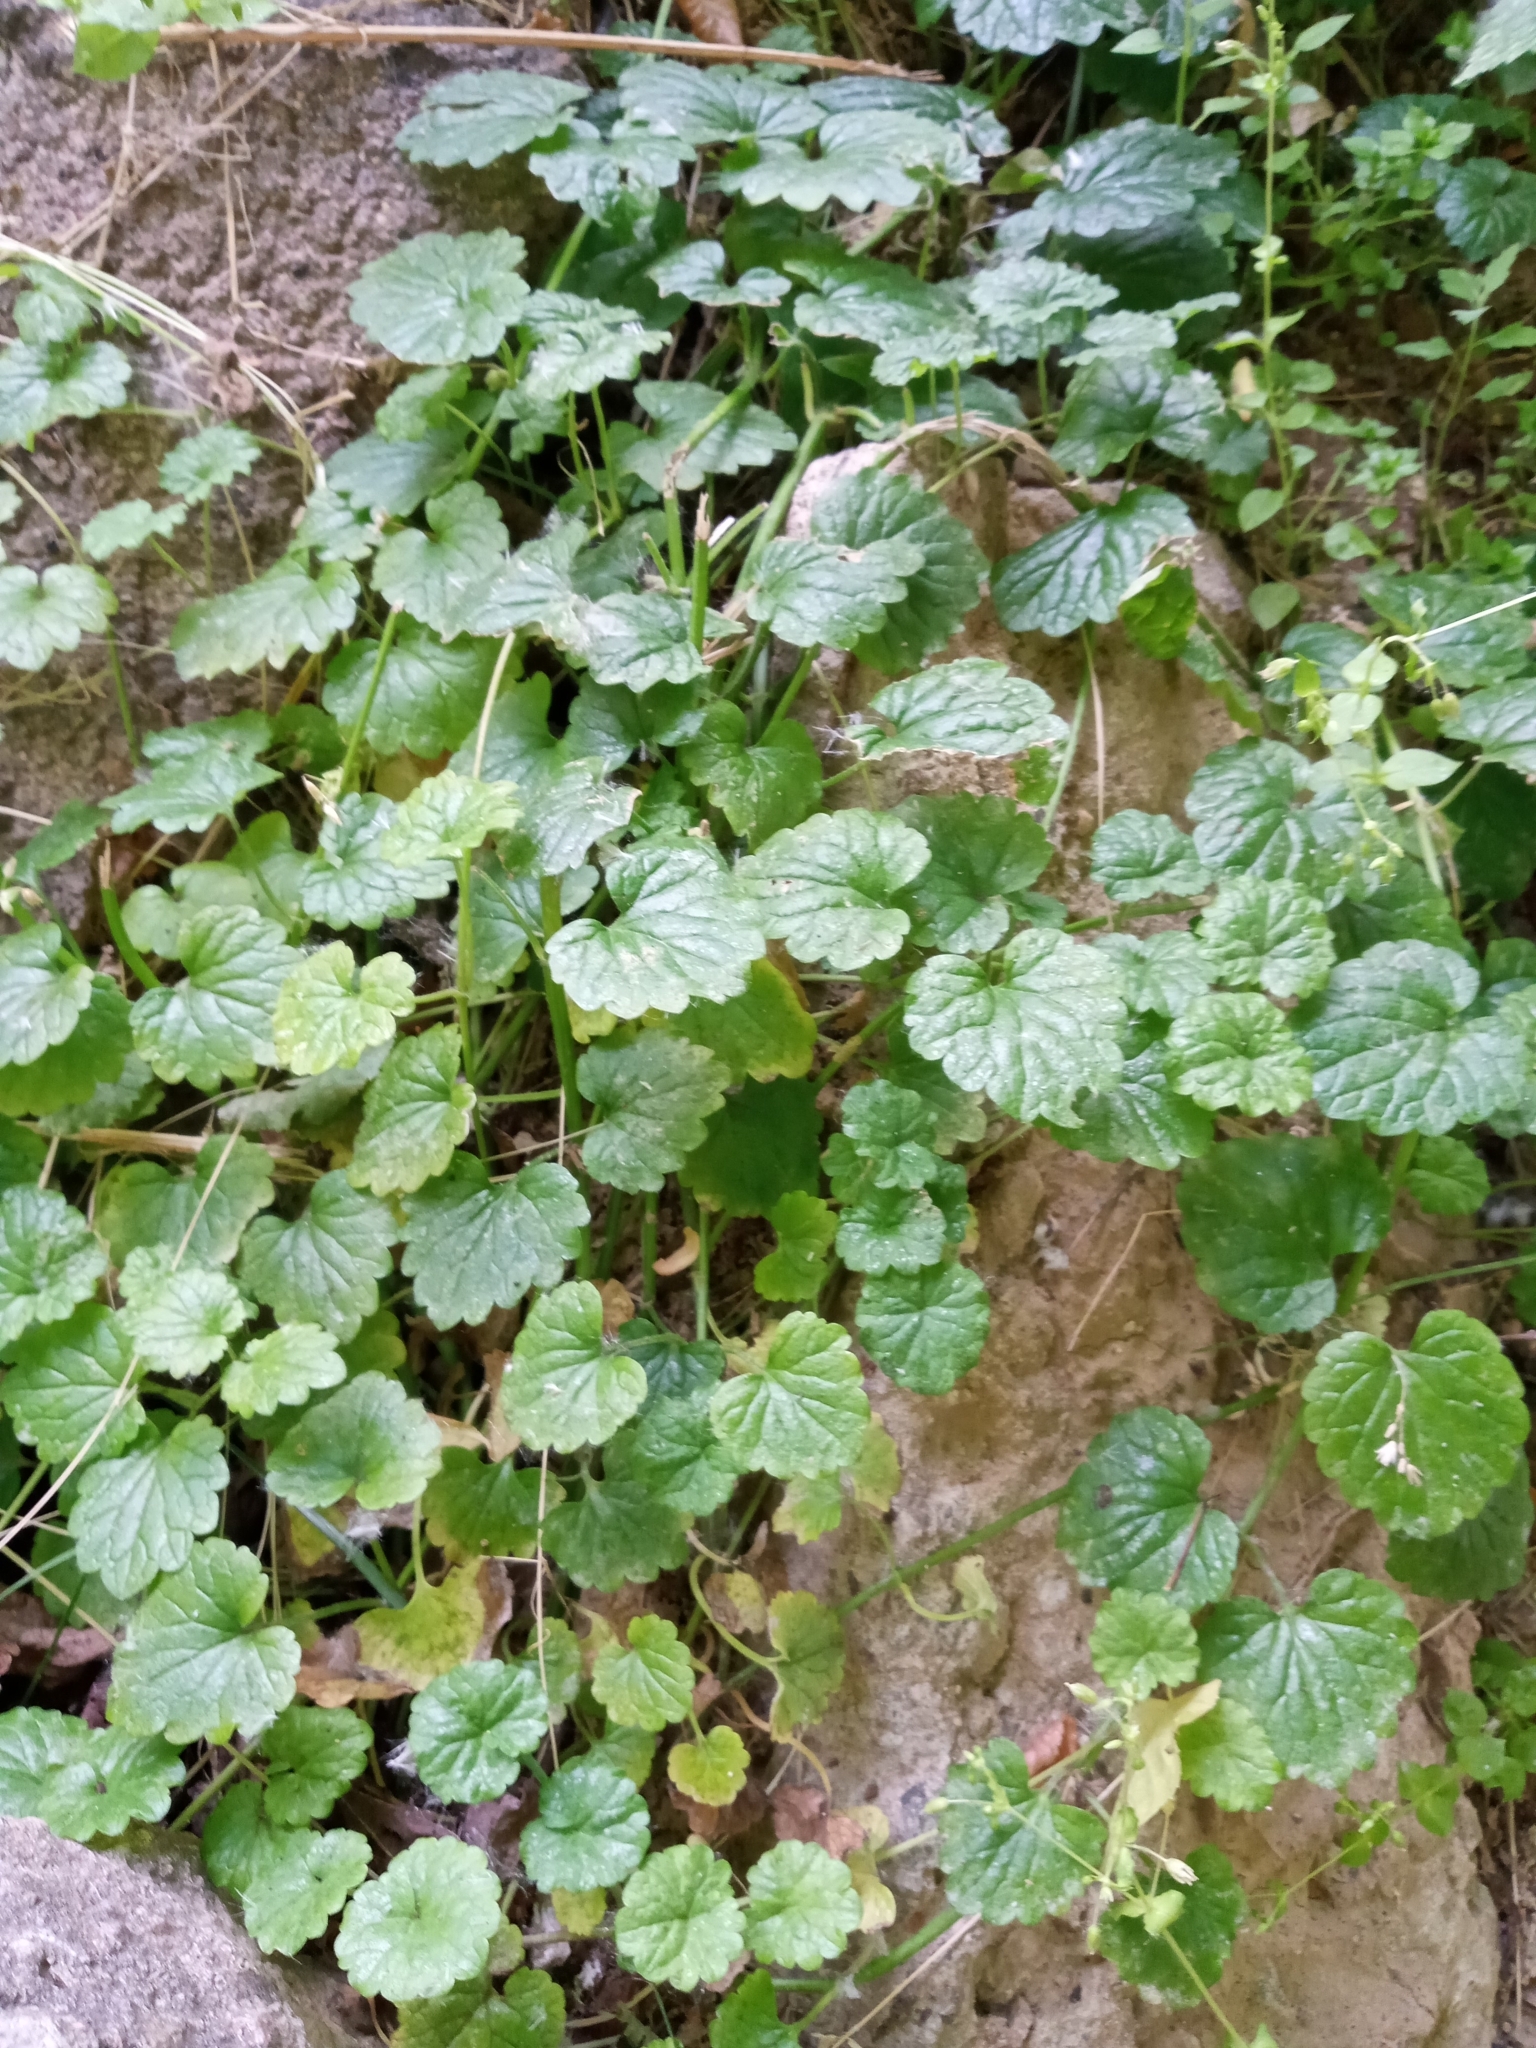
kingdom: Plantae
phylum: Tracheophyta
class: Magnoliopsida
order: Lamiales
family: Lamiaceae
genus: Glechoma
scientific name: Glechoma hederacea
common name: Ground ivy
